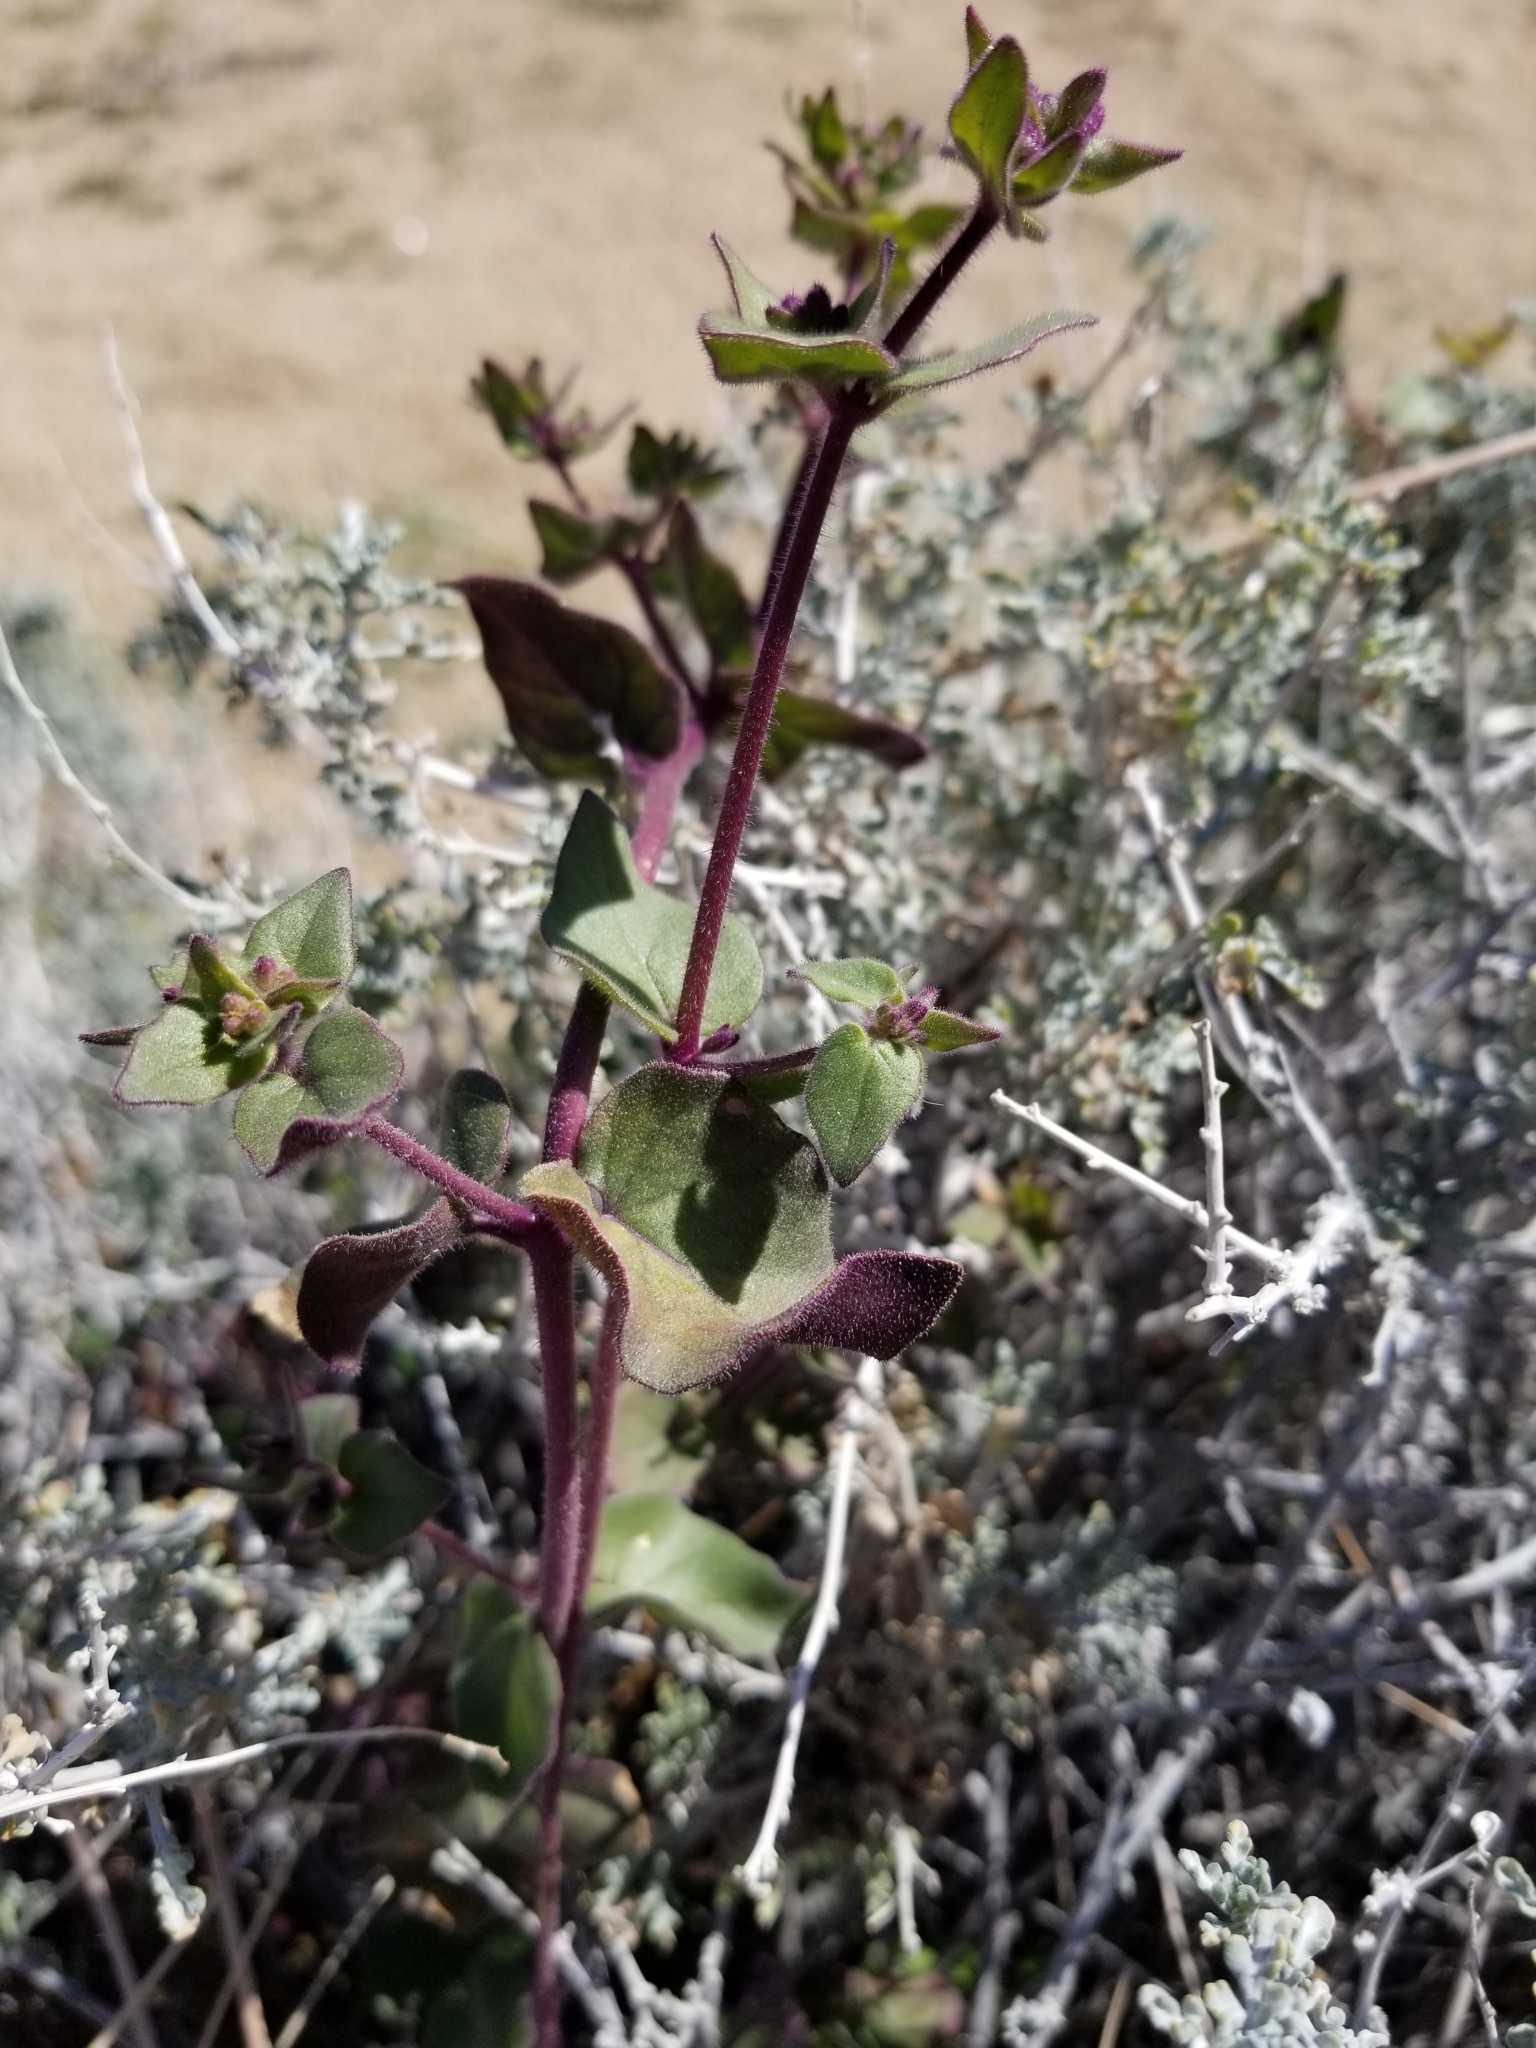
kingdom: Plantae
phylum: Tracheophyta
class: Magnoliopsida
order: Caryophyllales
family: Nyctaginaceae
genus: Mirabilis
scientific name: Mirabilis laevis
